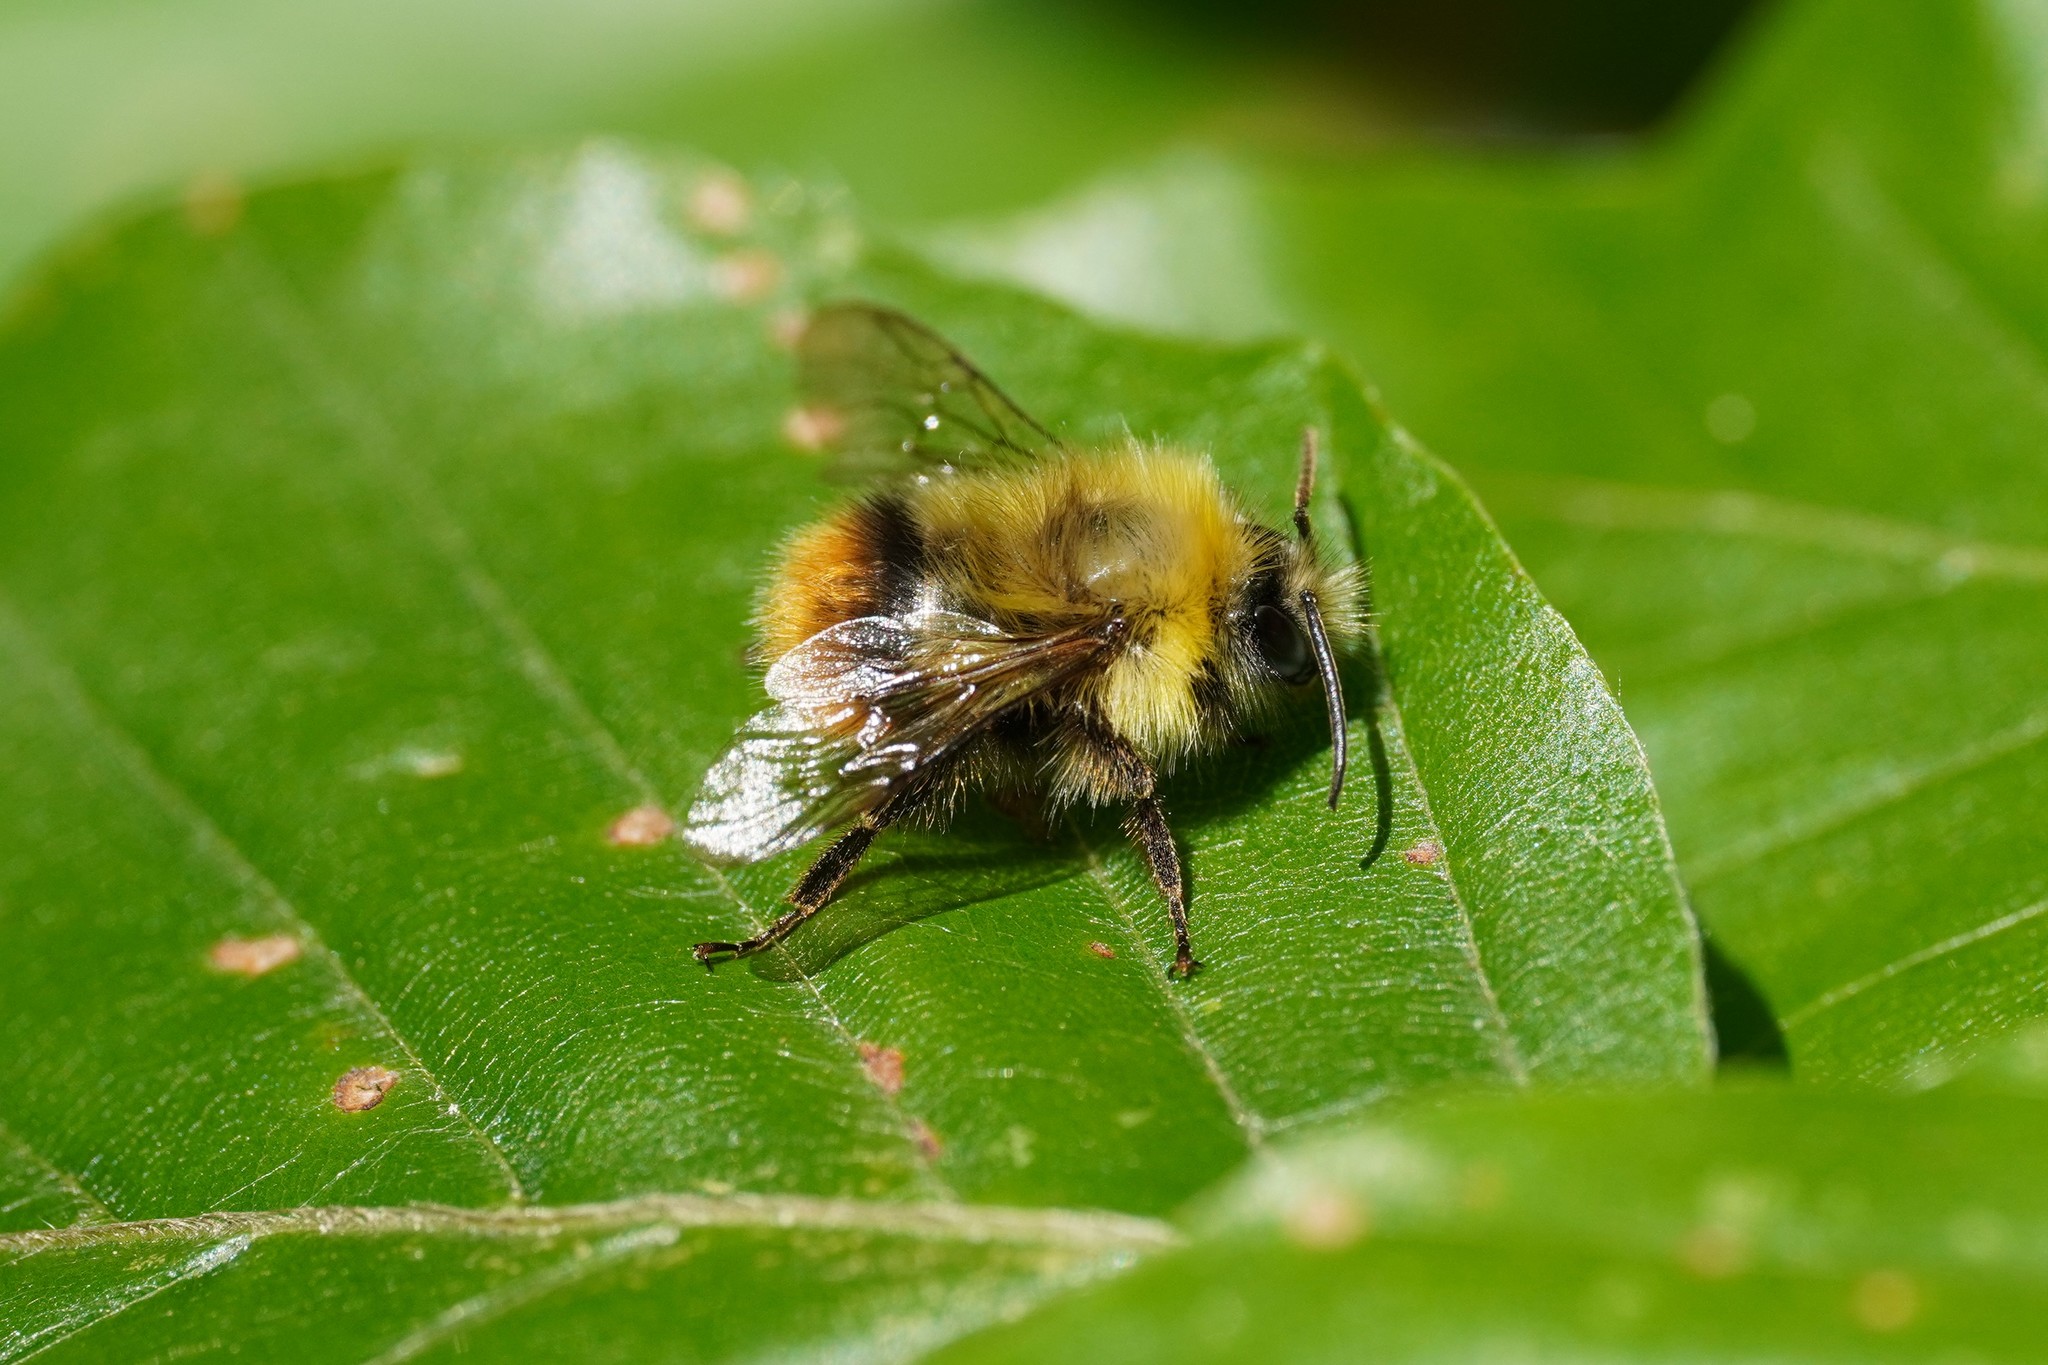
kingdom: Animalia
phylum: Arthropoda
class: Insecta
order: Hymenoptera
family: Apidae
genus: Bombus
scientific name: Bombus pratorum
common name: Early humble-bee
